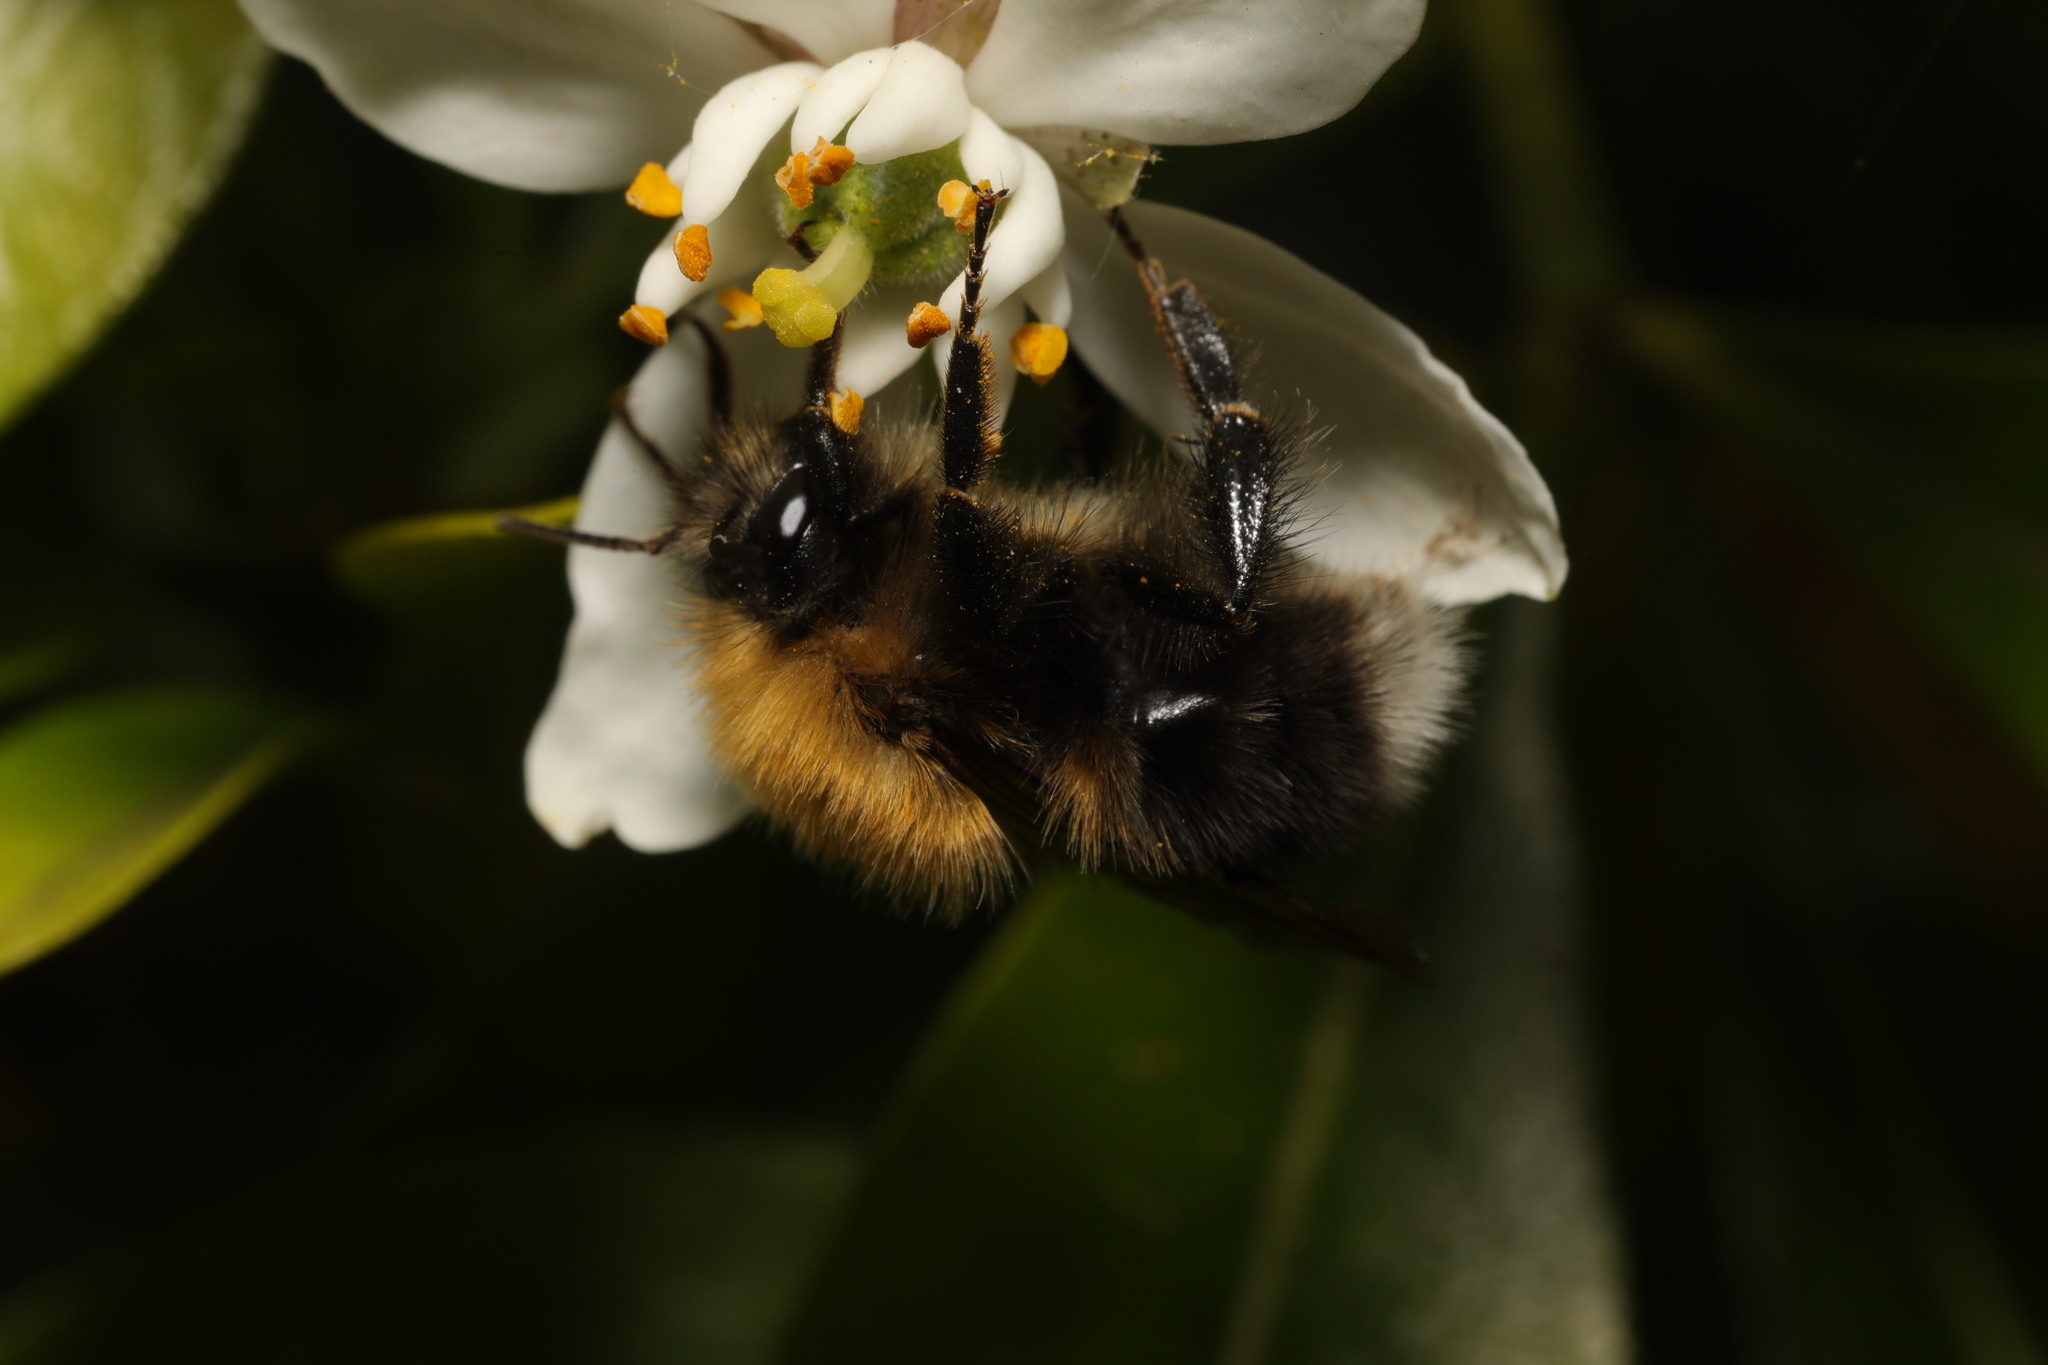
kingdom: Animalia
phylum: Arthropoda
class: Insecta
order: Hymenoptera
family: Apidae
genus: Bombus
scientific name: Bombus hypnorum
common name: New garden bumblebee
